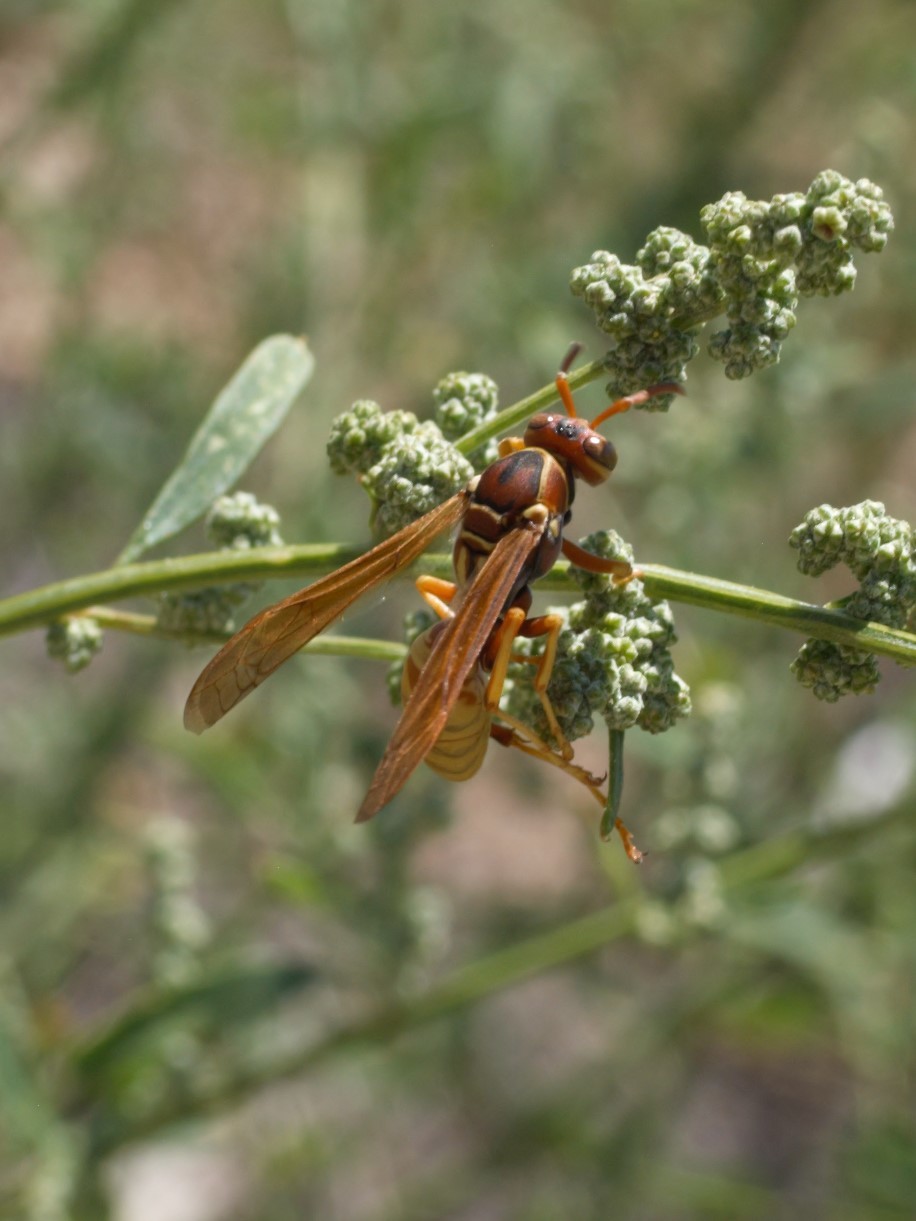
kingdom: Animalia
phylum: Arthropoda
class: Insecta
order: Hymenoptera
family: Eumenidae
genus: Polistes
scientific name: Polistes aurifer
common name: Paper wasp
